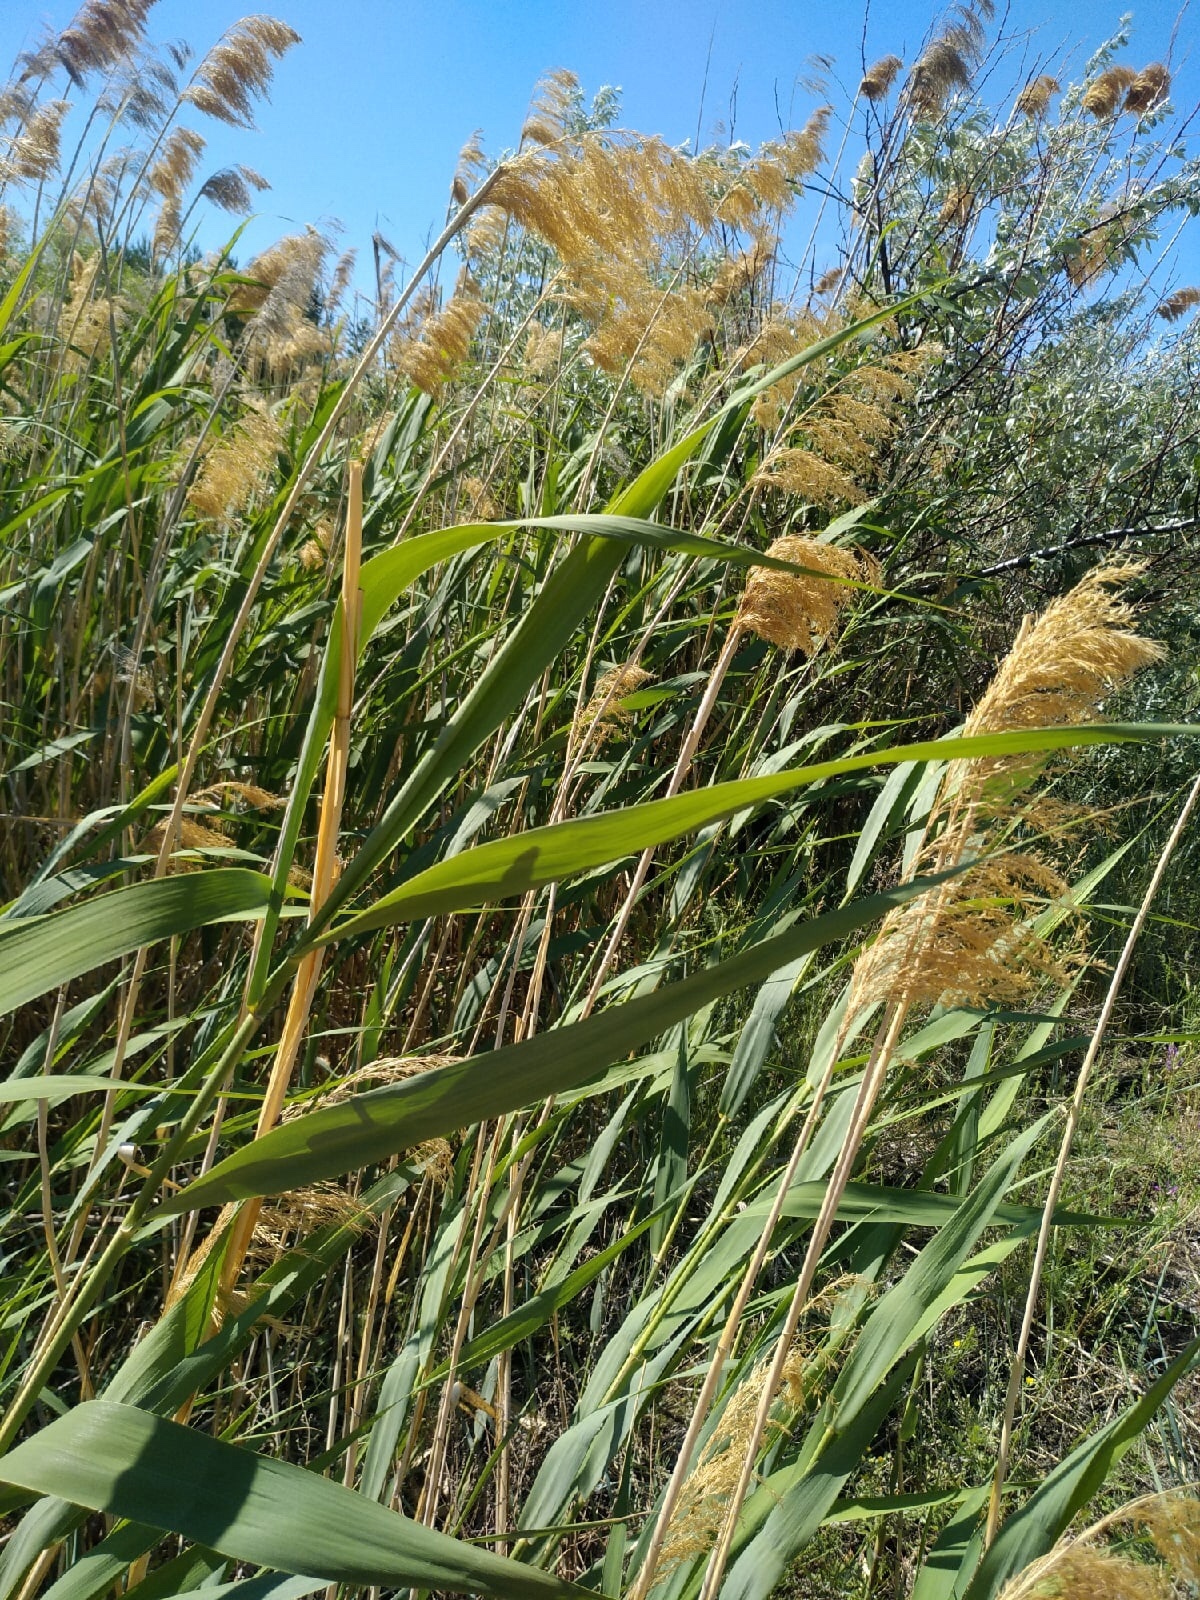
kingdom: Plantae
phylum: Tracheophyta
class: Liliopsida
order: Poales
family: Poaceae
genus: Phragmites
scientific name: Phragmites australis
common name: Common reed
